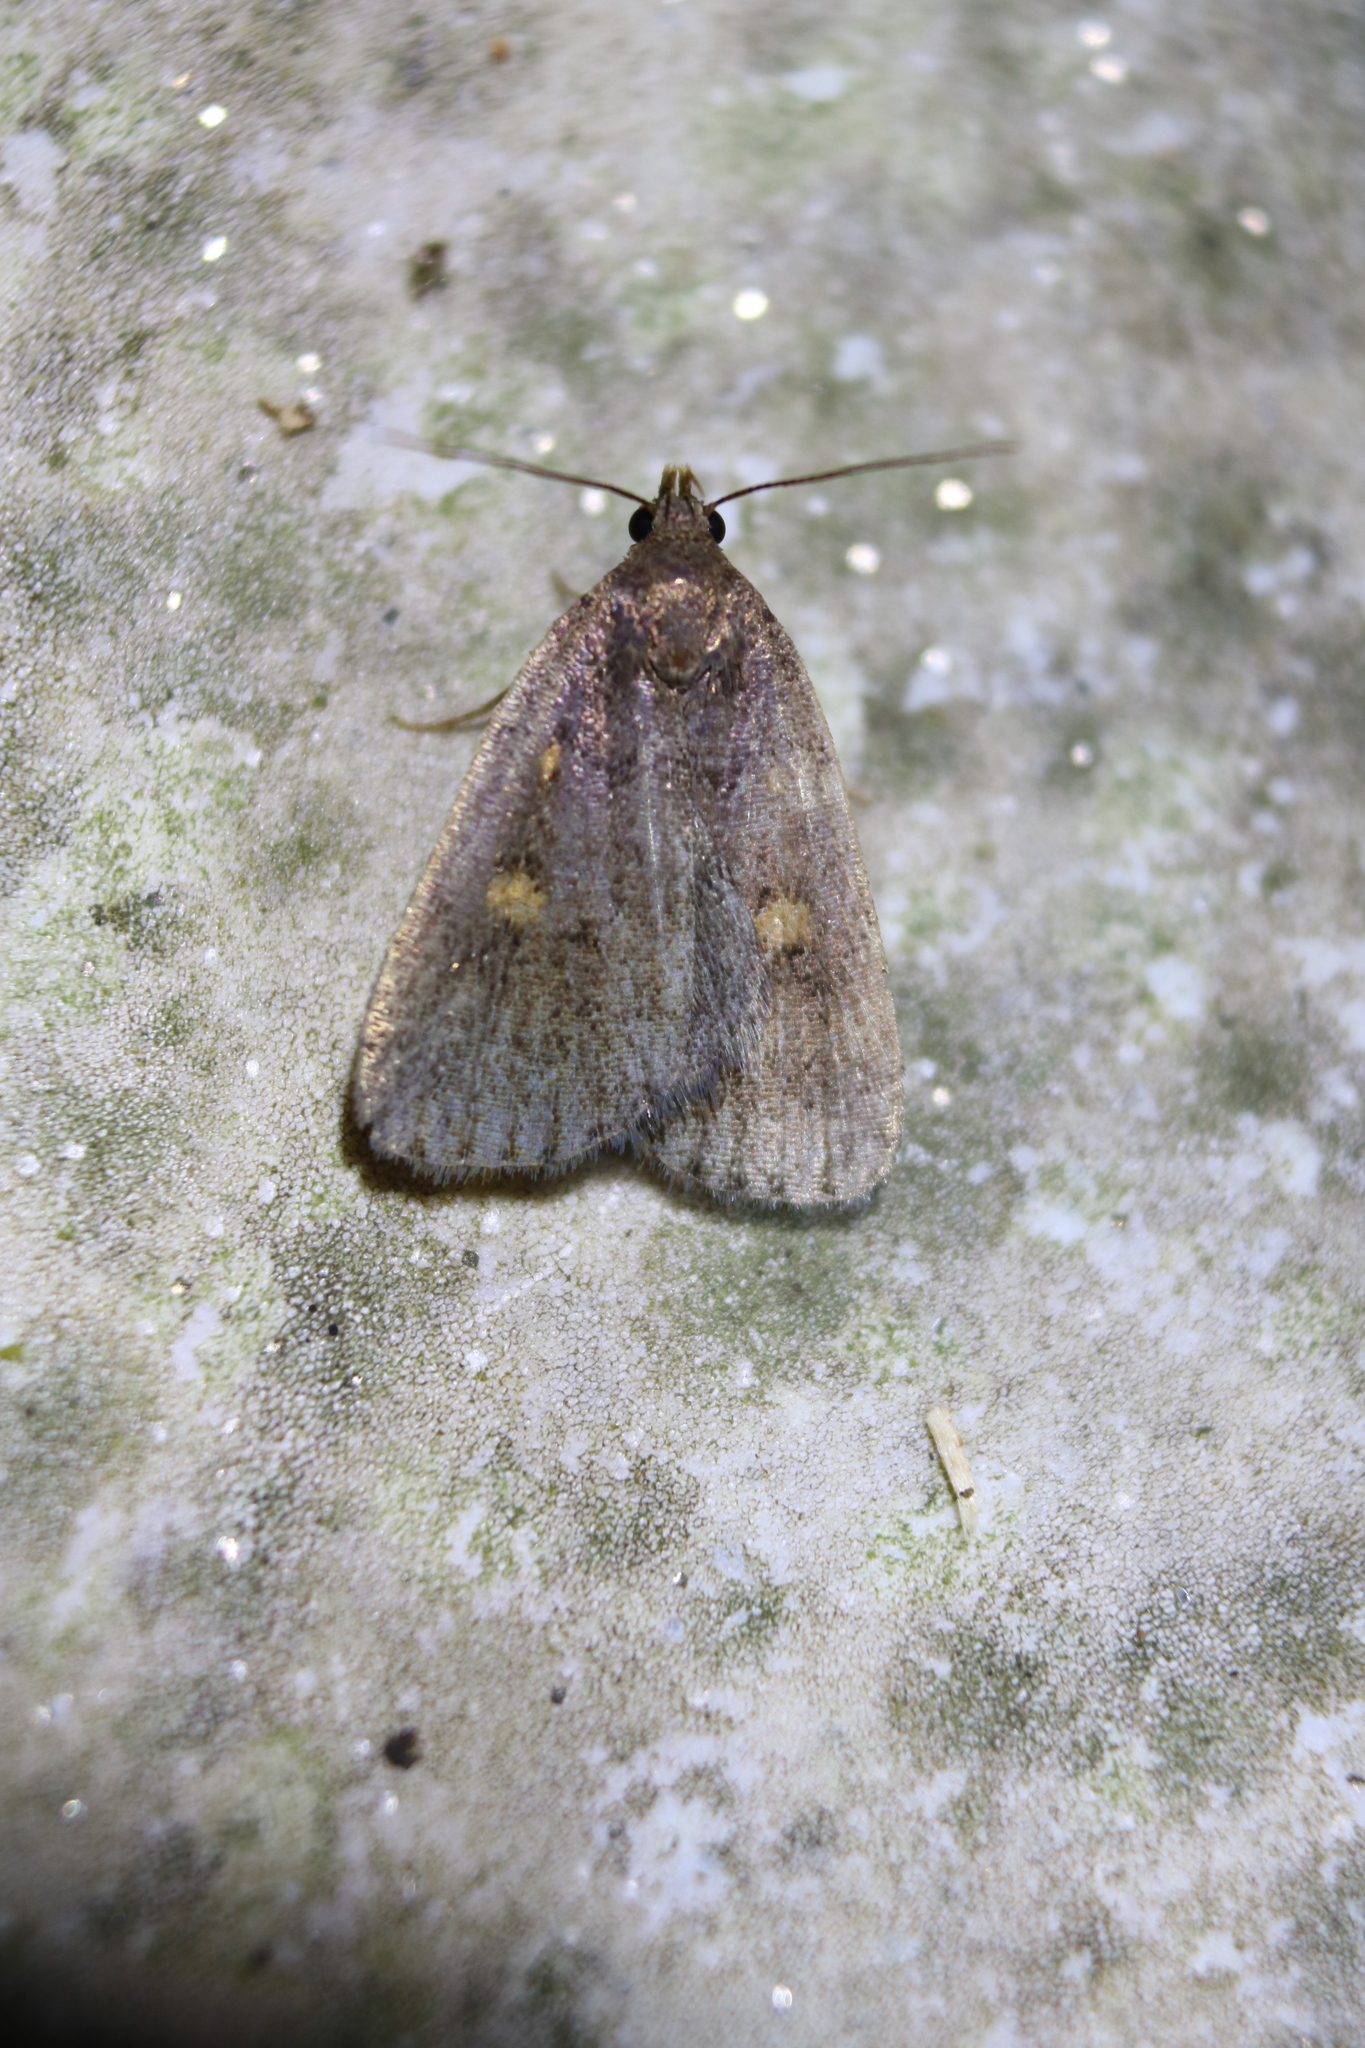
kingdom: Animalia
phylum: Arthropoda
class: Insecta
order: Lepidoptera
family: Erebidae
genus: Idia
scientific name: Idia diminuendis
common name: Orange-spotted idia moth
